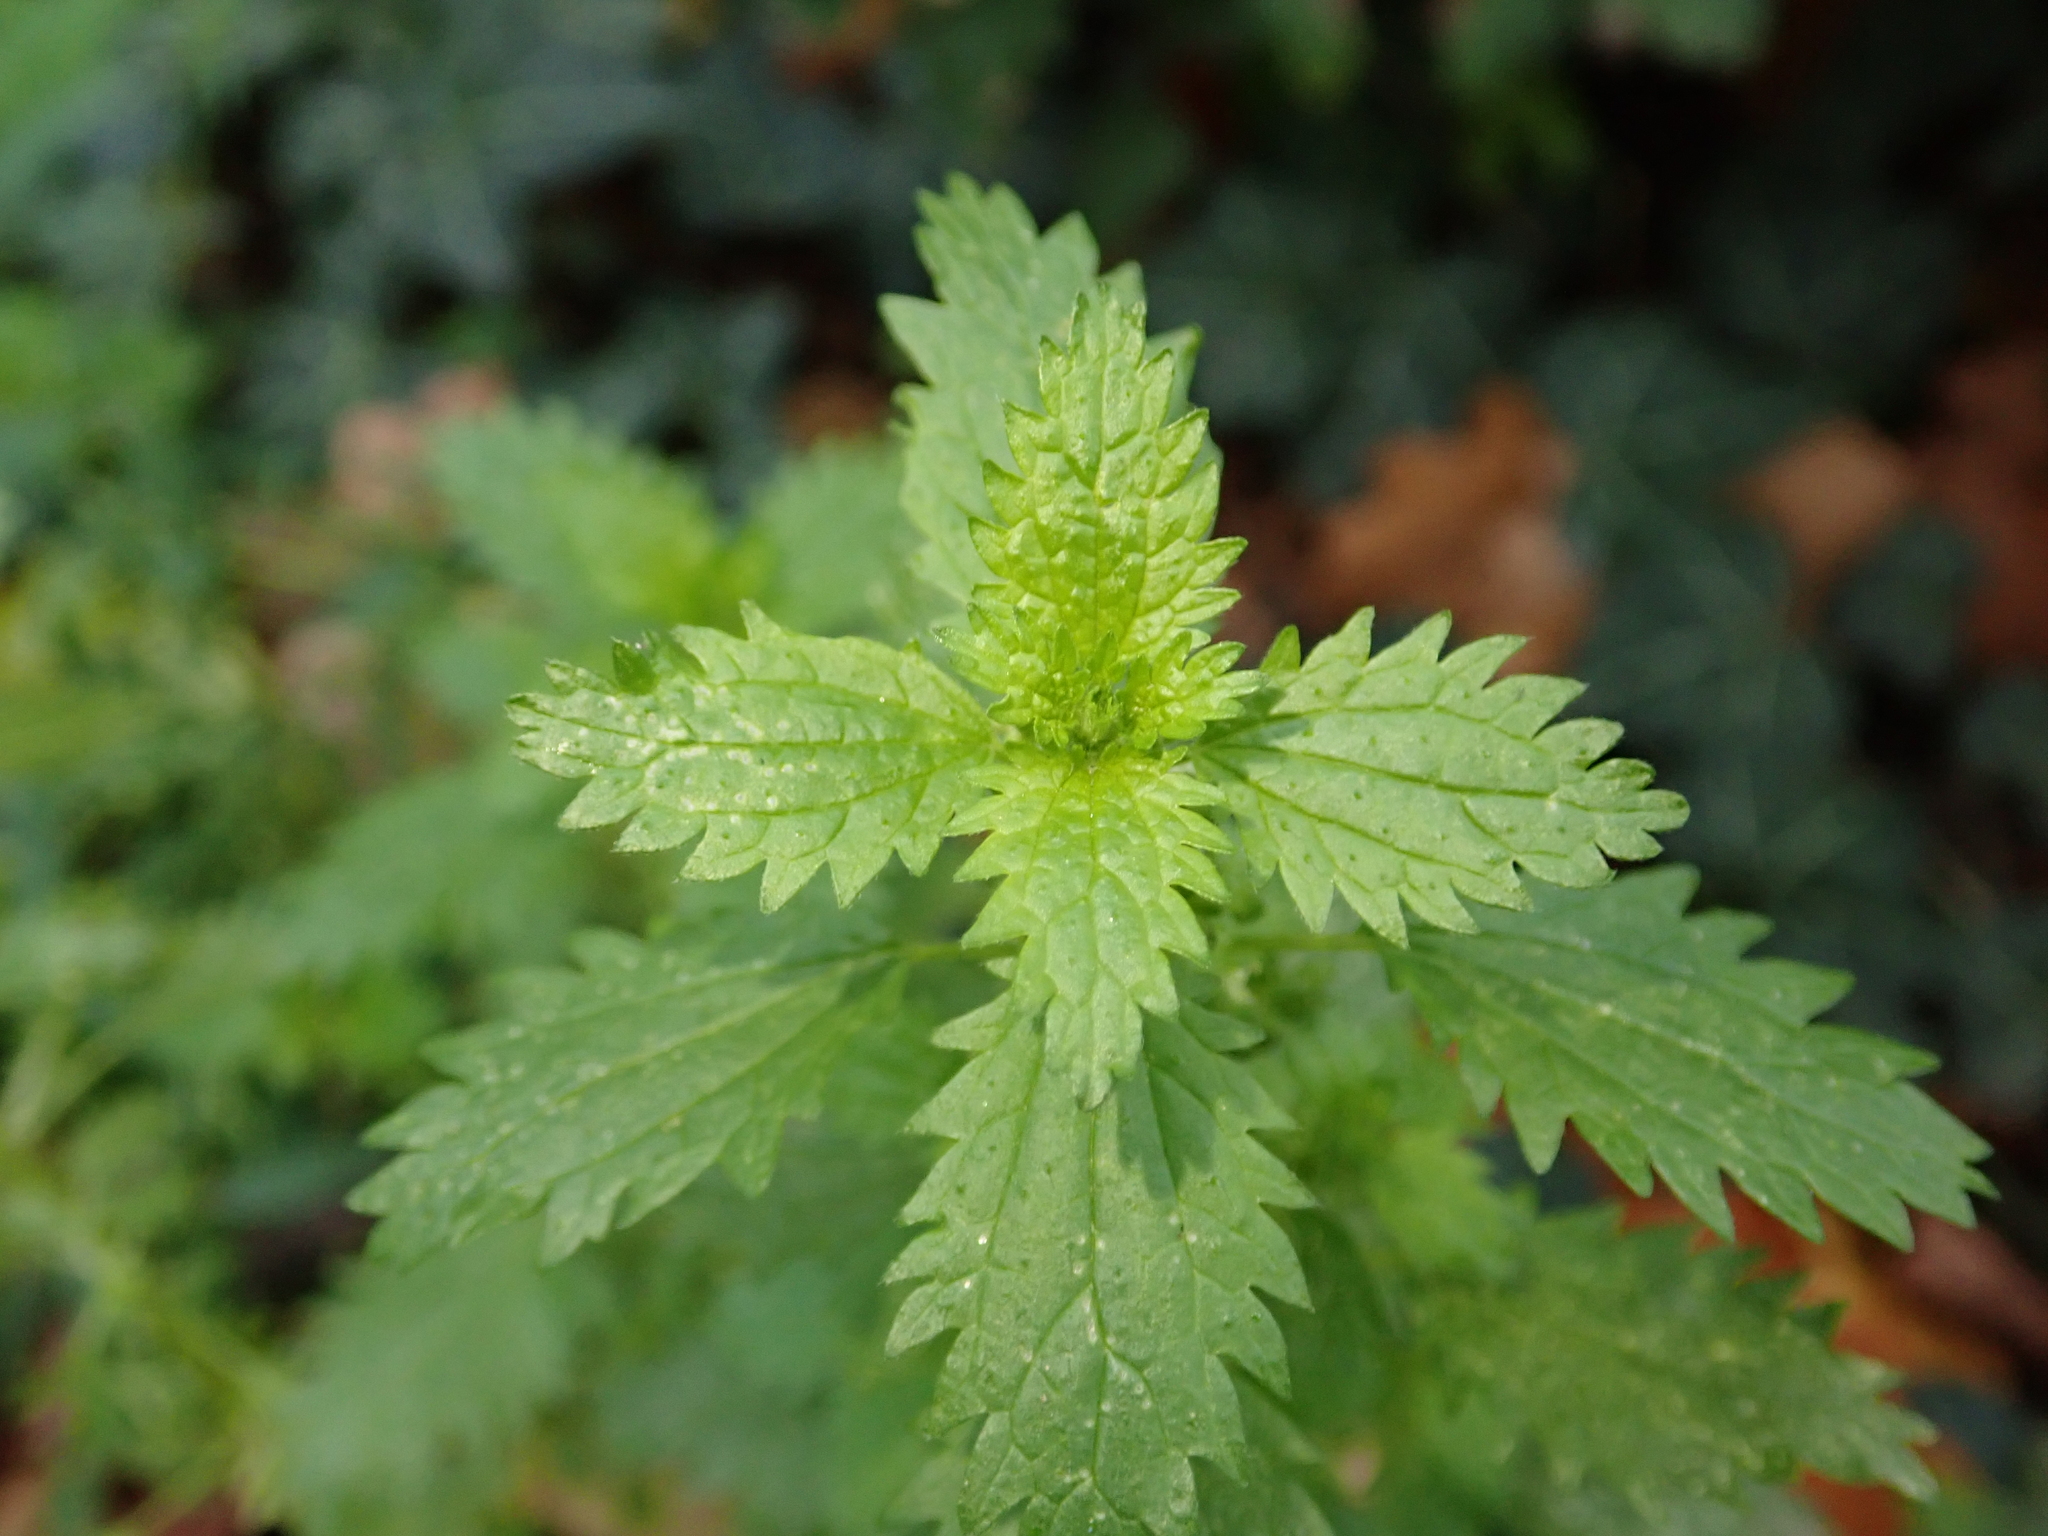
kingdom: Plantae
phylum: Tracheophyta
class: Magnoliopsida
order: Rosales
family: Urticaceae
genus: Urtica
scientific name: Urtica urens
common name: Dwarf nettle
